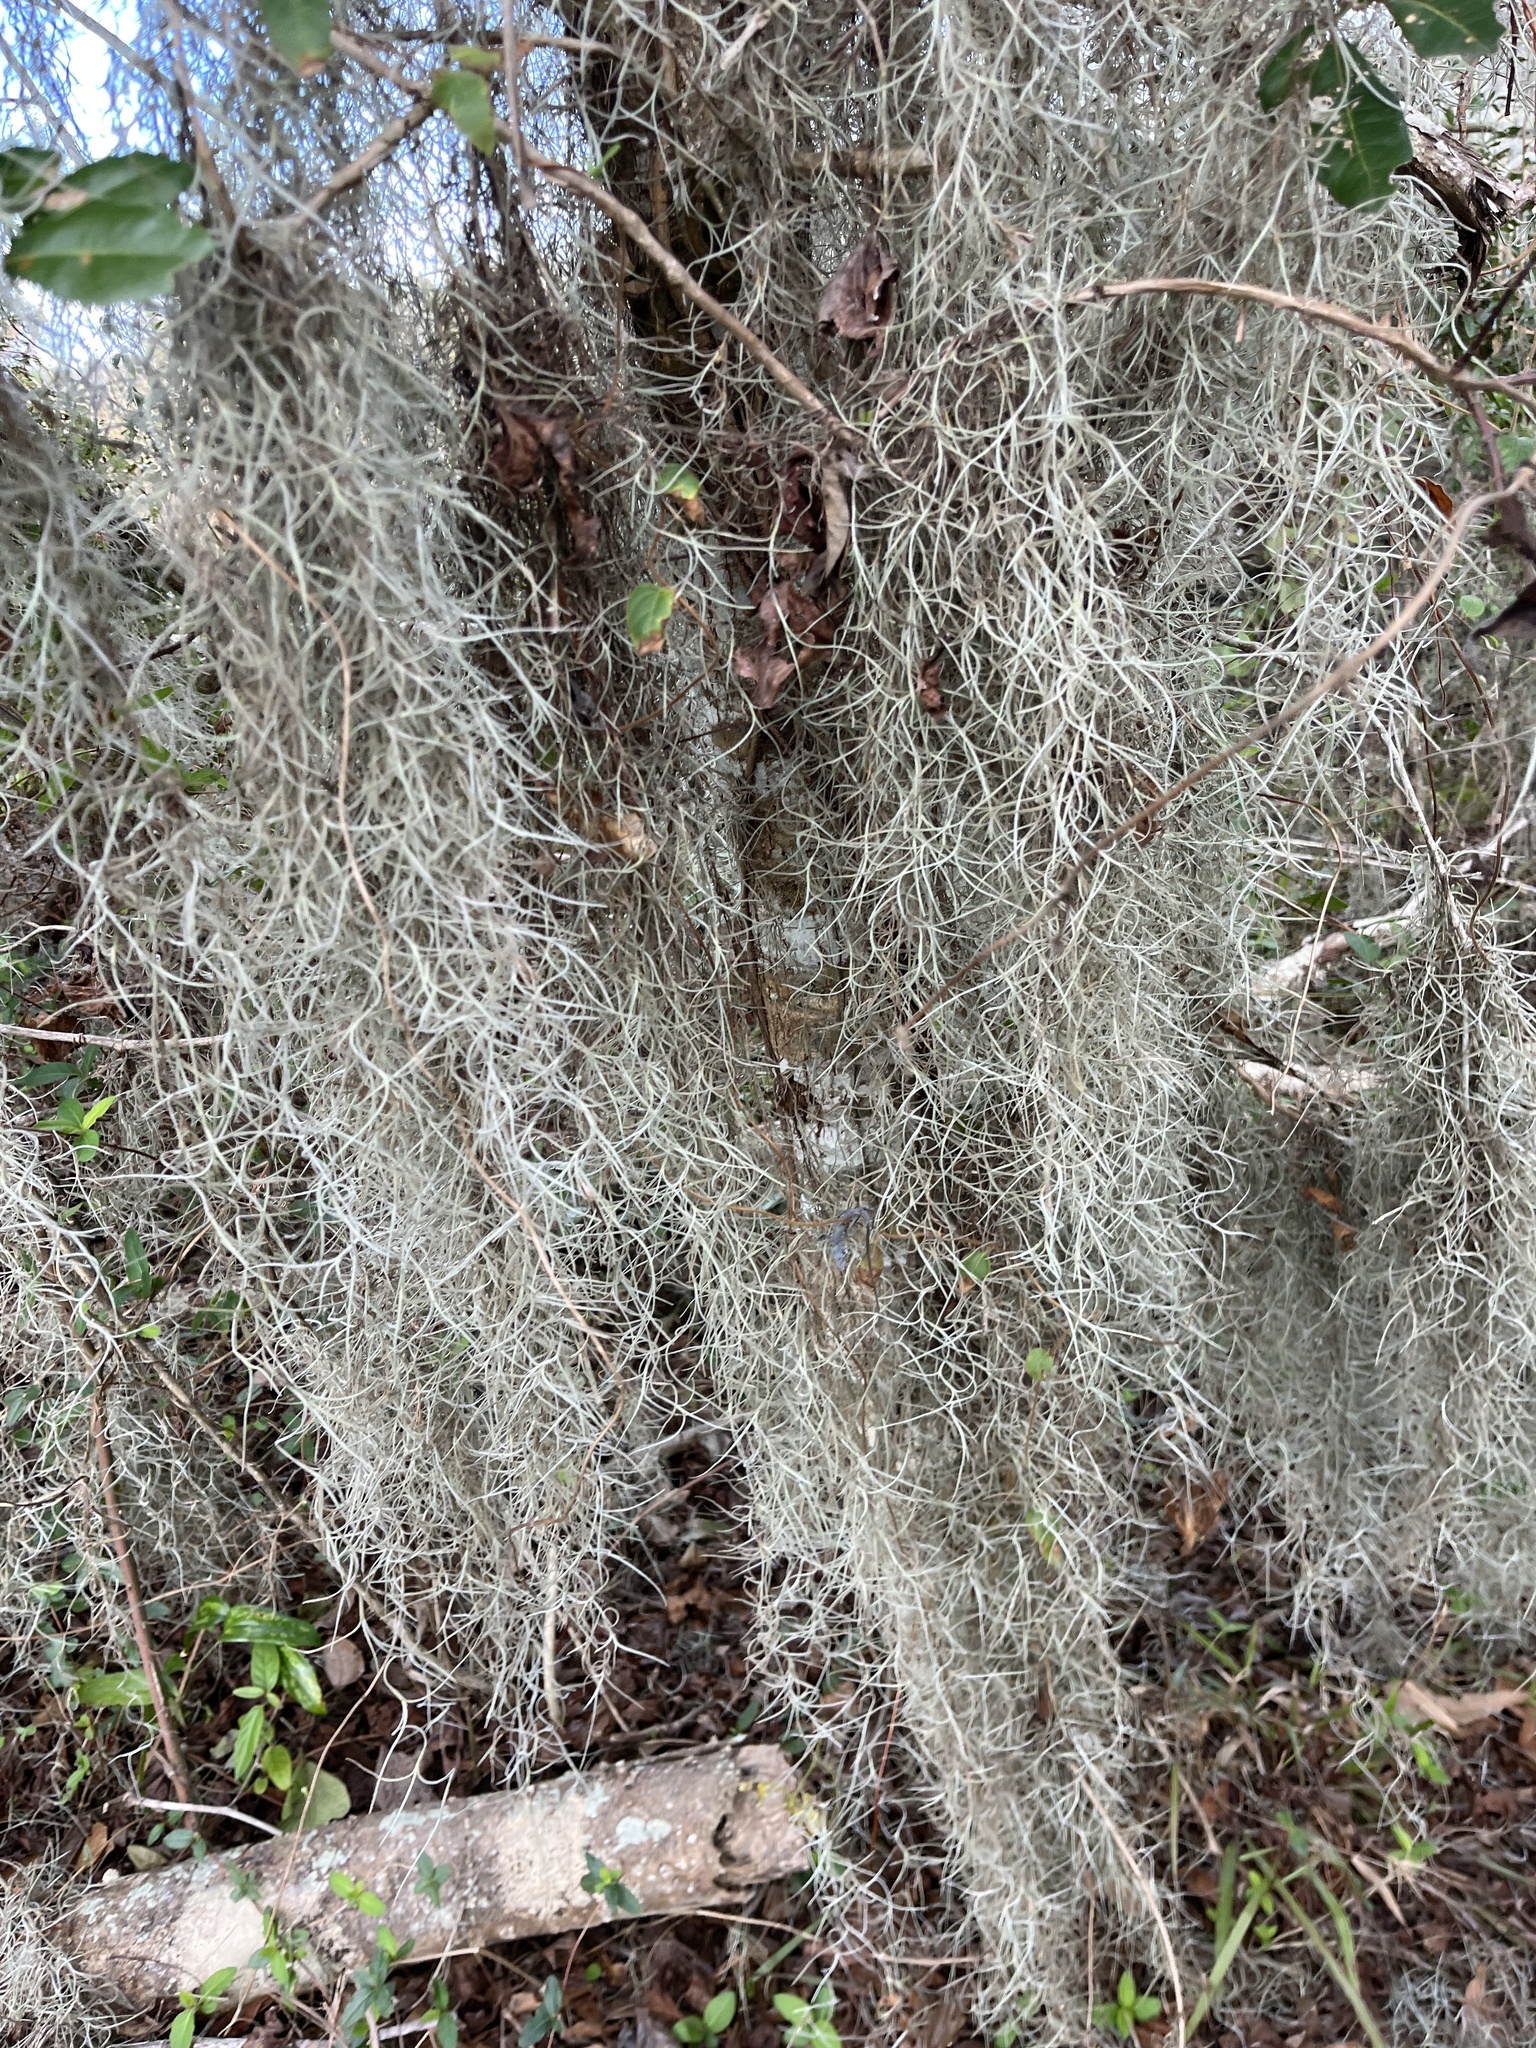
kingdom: Plantae
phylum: Tracheophyta
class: Liliopsida
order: Poales
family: Bromeliaceae
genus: Tillandsia
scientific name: Tillandsia usneoides
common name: Spanish moss
